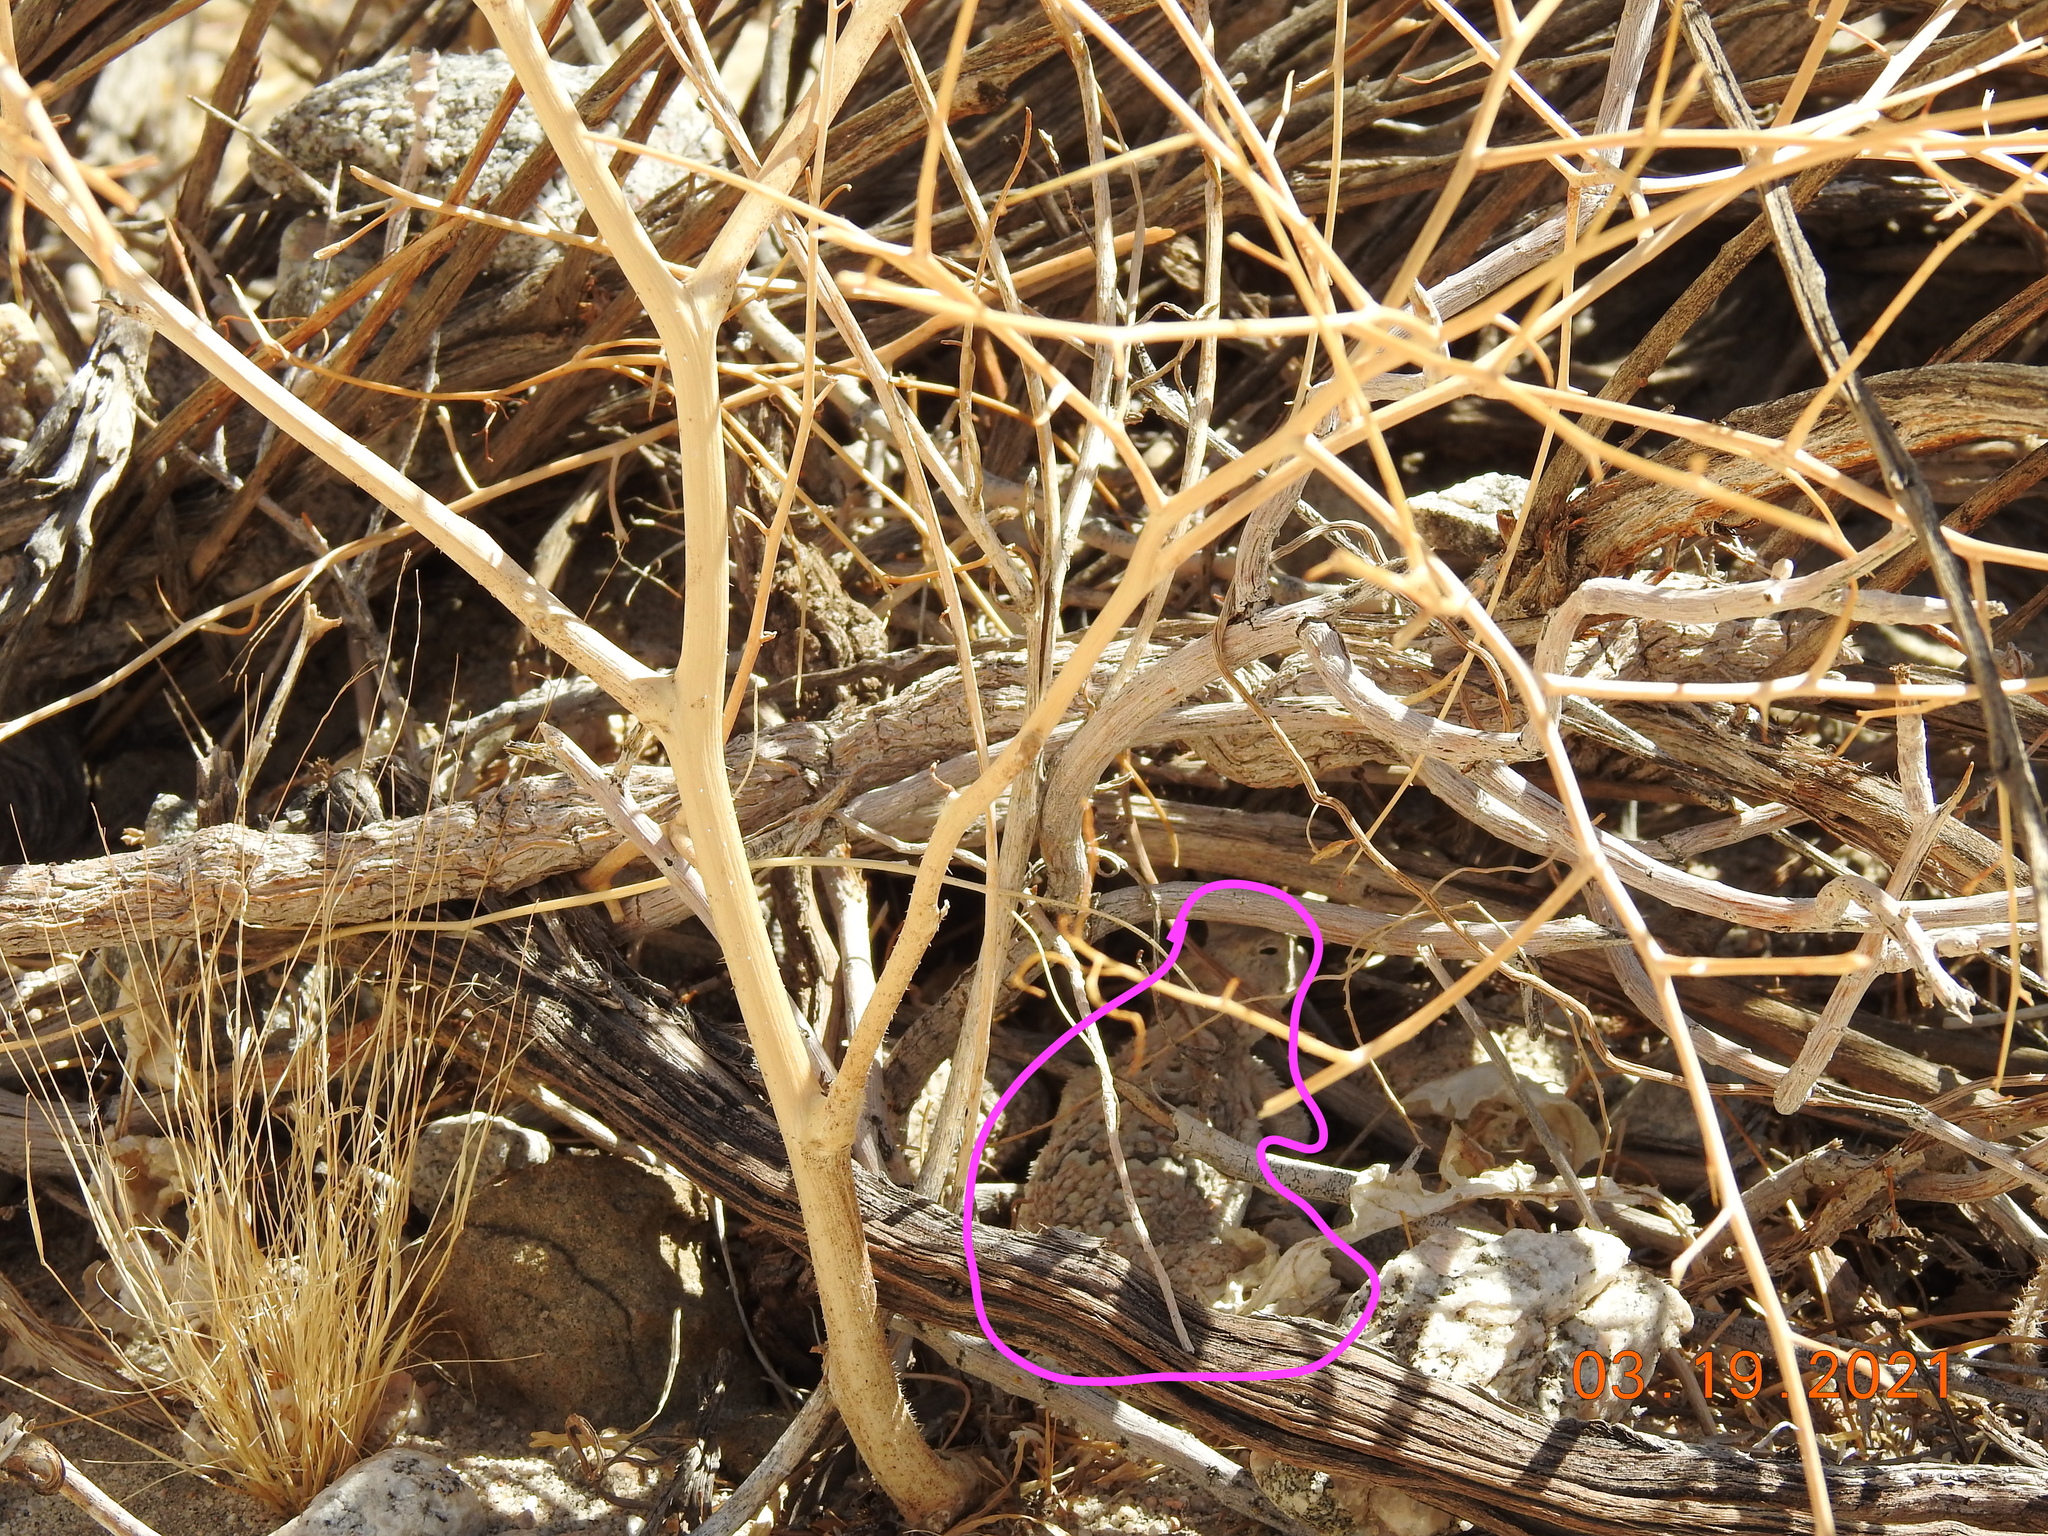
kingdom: Animalia
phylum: Chordata
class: Squamata
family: Phrynosomatidae
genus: Phrynosoma
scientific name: Phrynosoma platyrhinos
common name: Desert horned lizard
